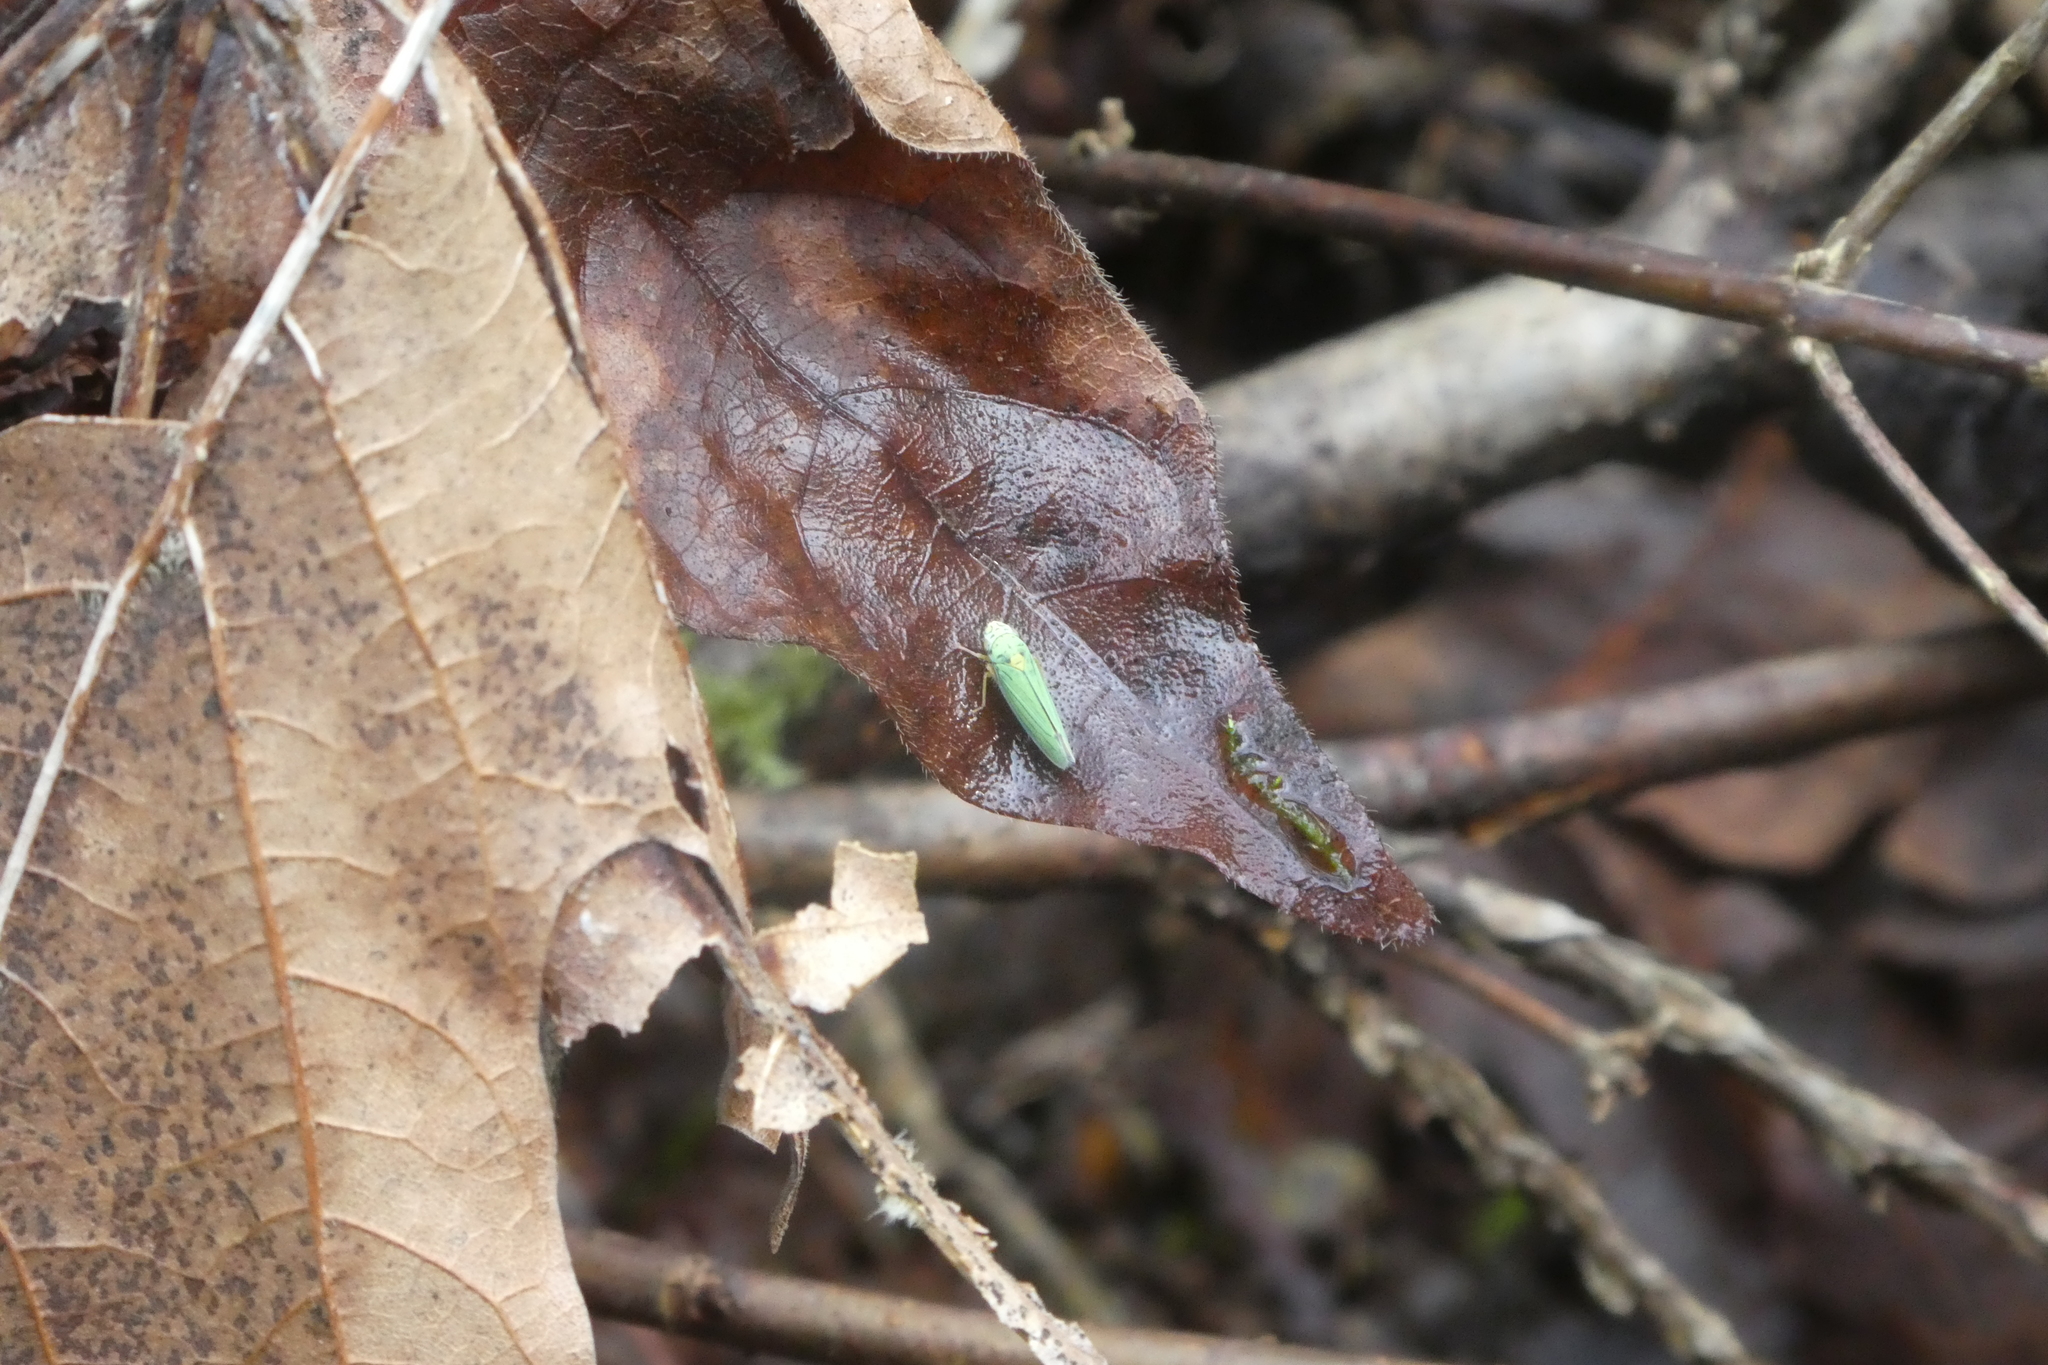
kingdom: Animalia
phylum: Arthropoda
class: Insecta
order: Hemiptera
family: Cicadellidae
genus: Graphocephala
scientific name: Graphocephala atropunctata
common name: Blue-green sharpshooter
